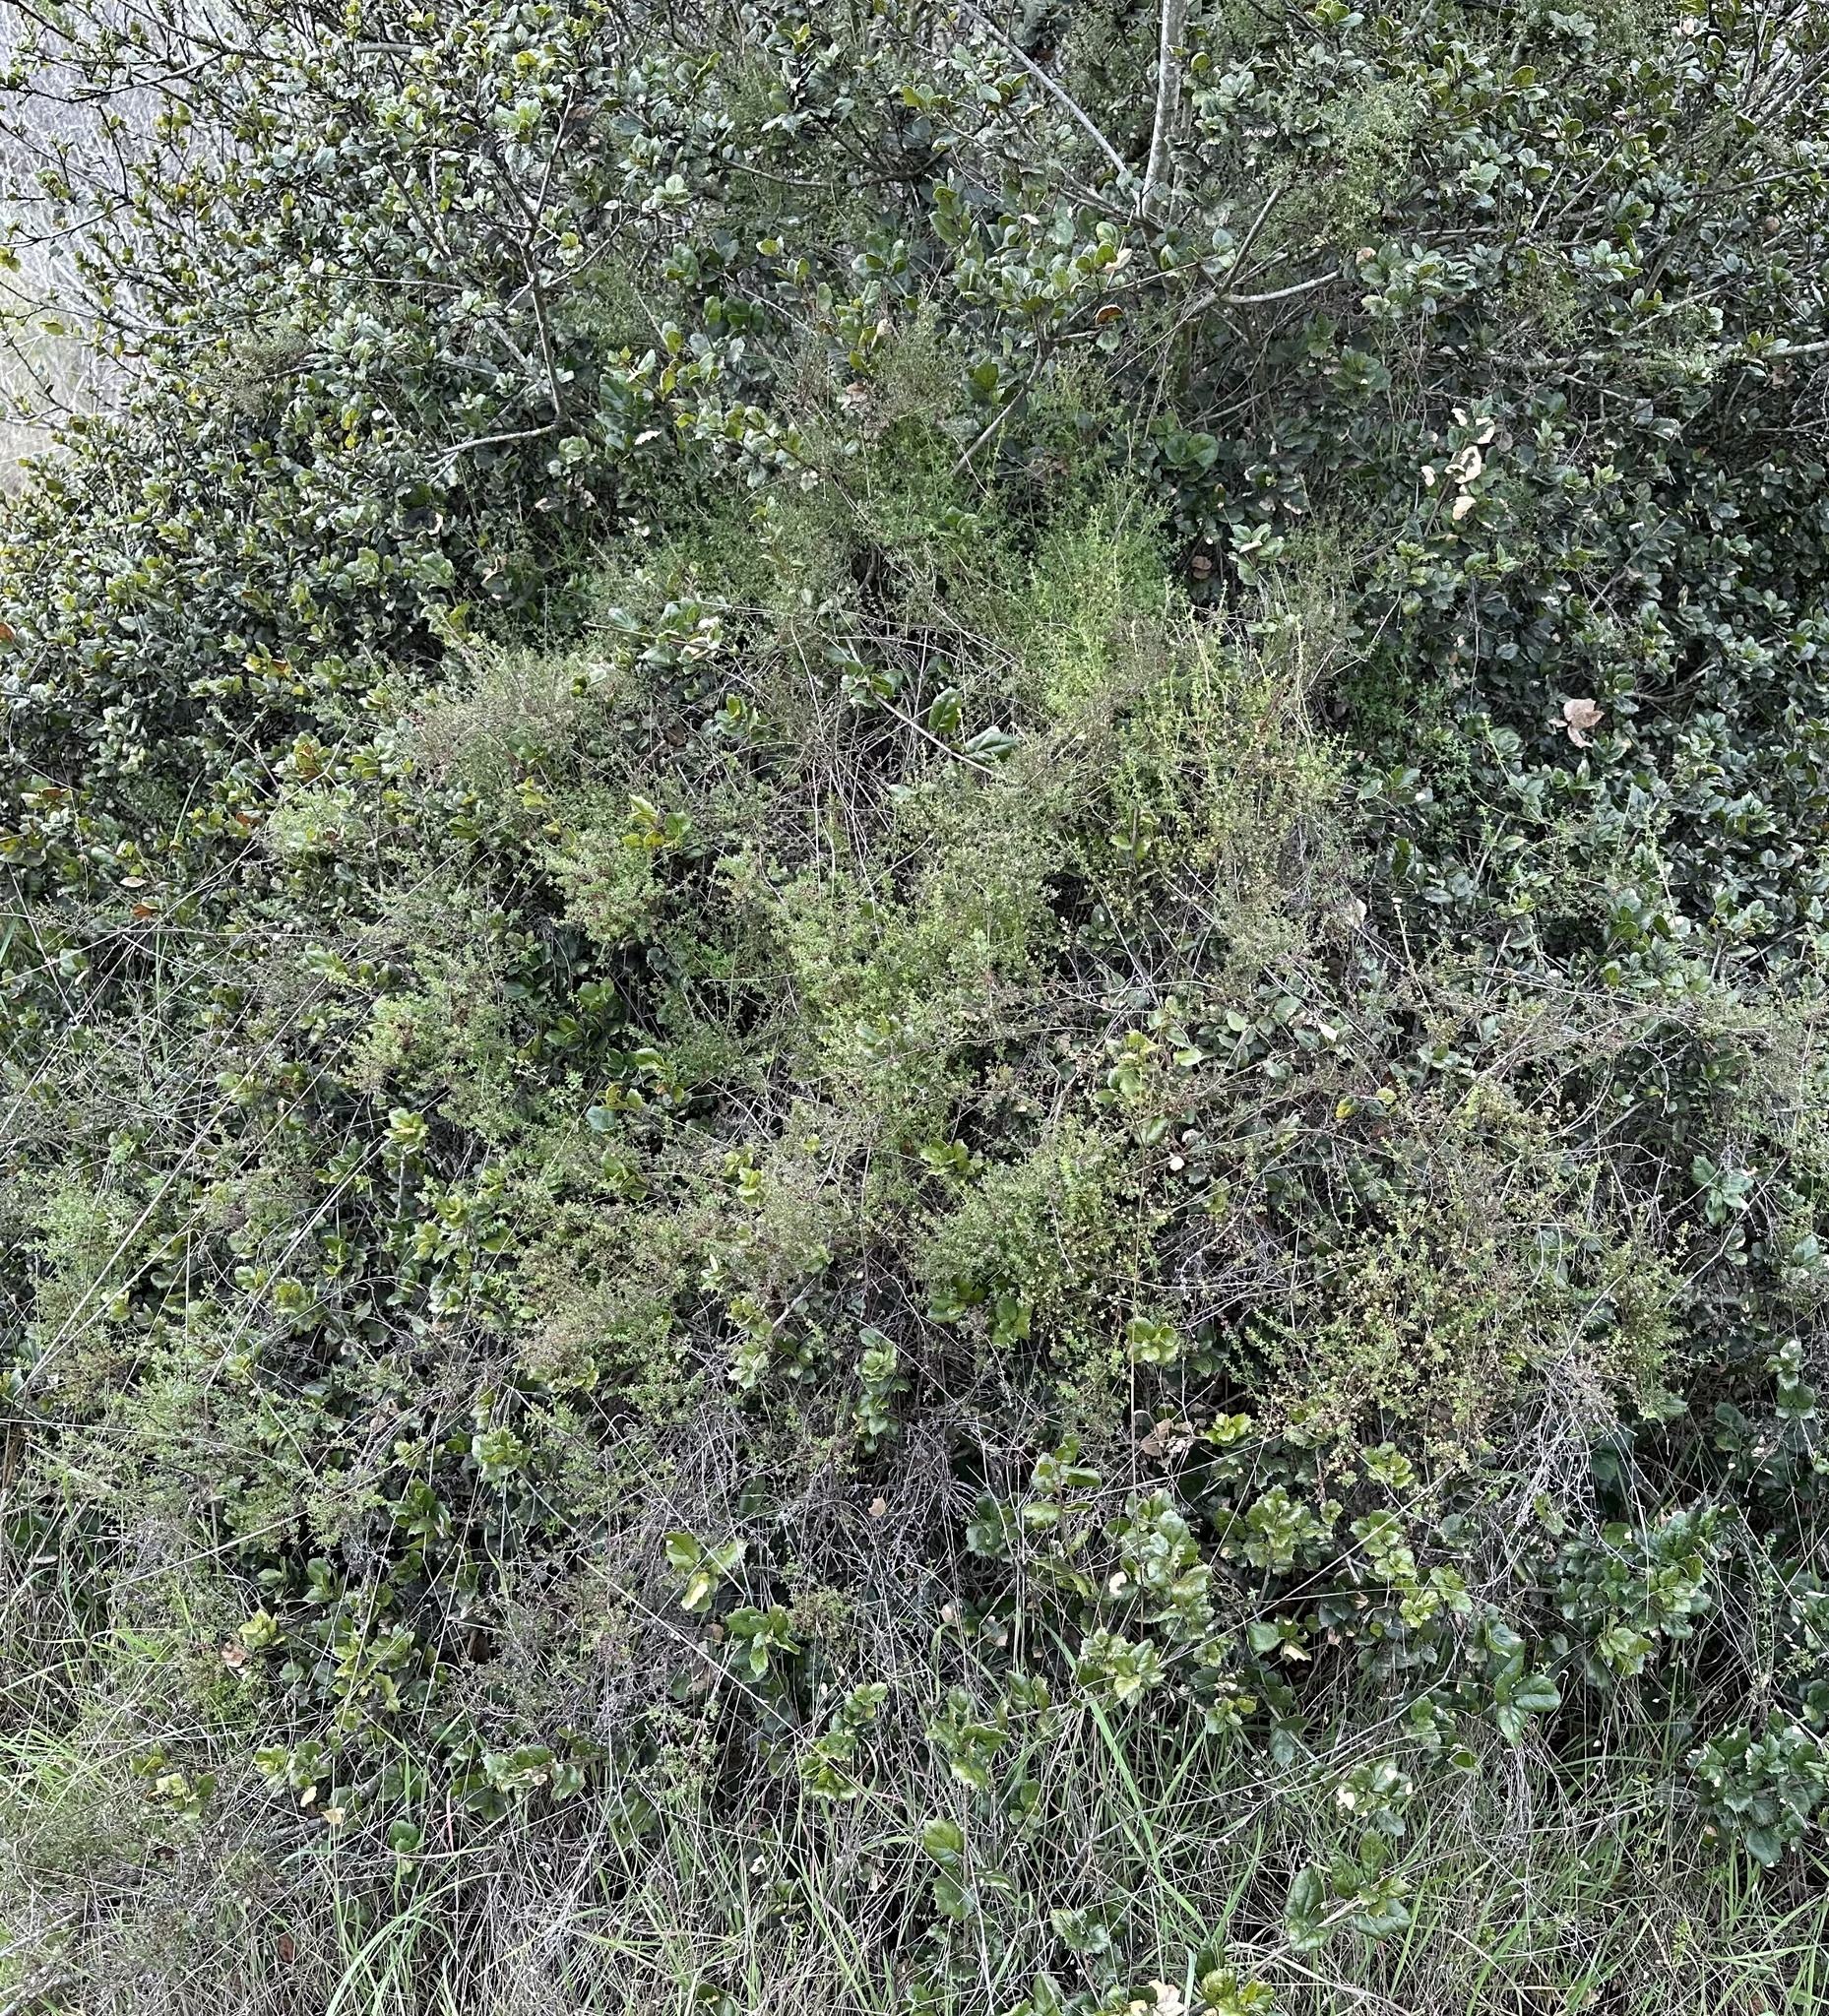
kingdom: Plantae
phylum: Tracheophyta
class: Magnoliopsida
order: Gentianales
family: Rubiaceae
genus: Galium
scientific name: Galium porrigens
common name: Climbing bedstraw
